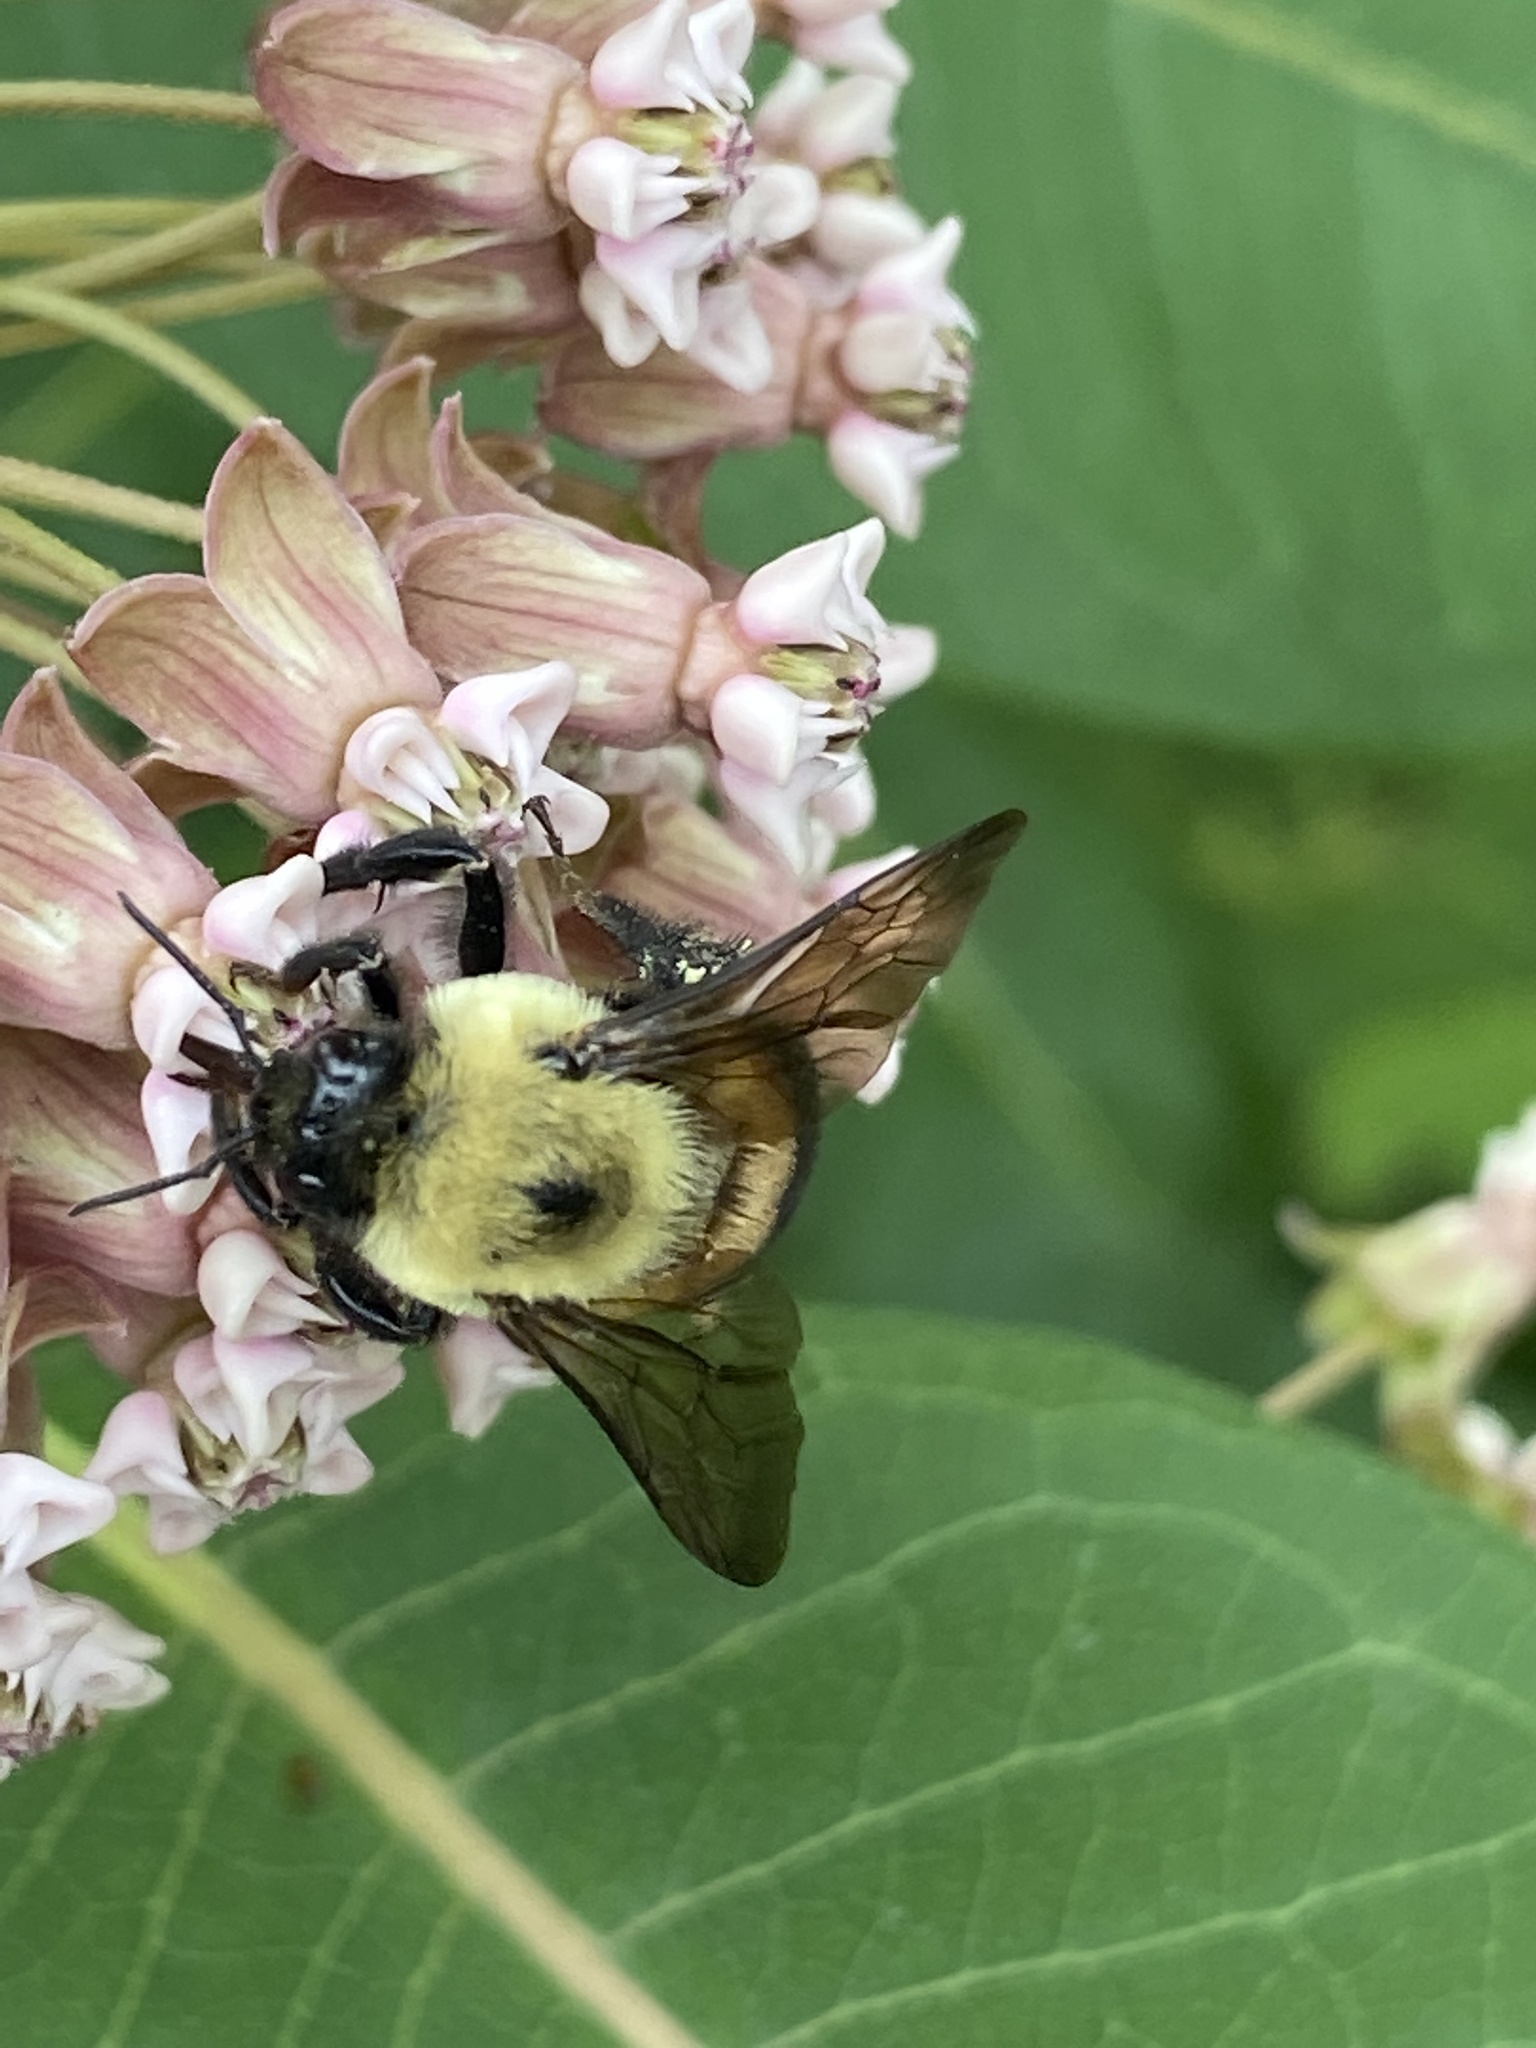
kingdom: Animalia
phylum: Arthropoda
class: Insecta
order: Hymenoptera
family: Apidae
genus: Bombus
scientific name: Bombus griseocollis
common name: Brown-belted bumble bee
